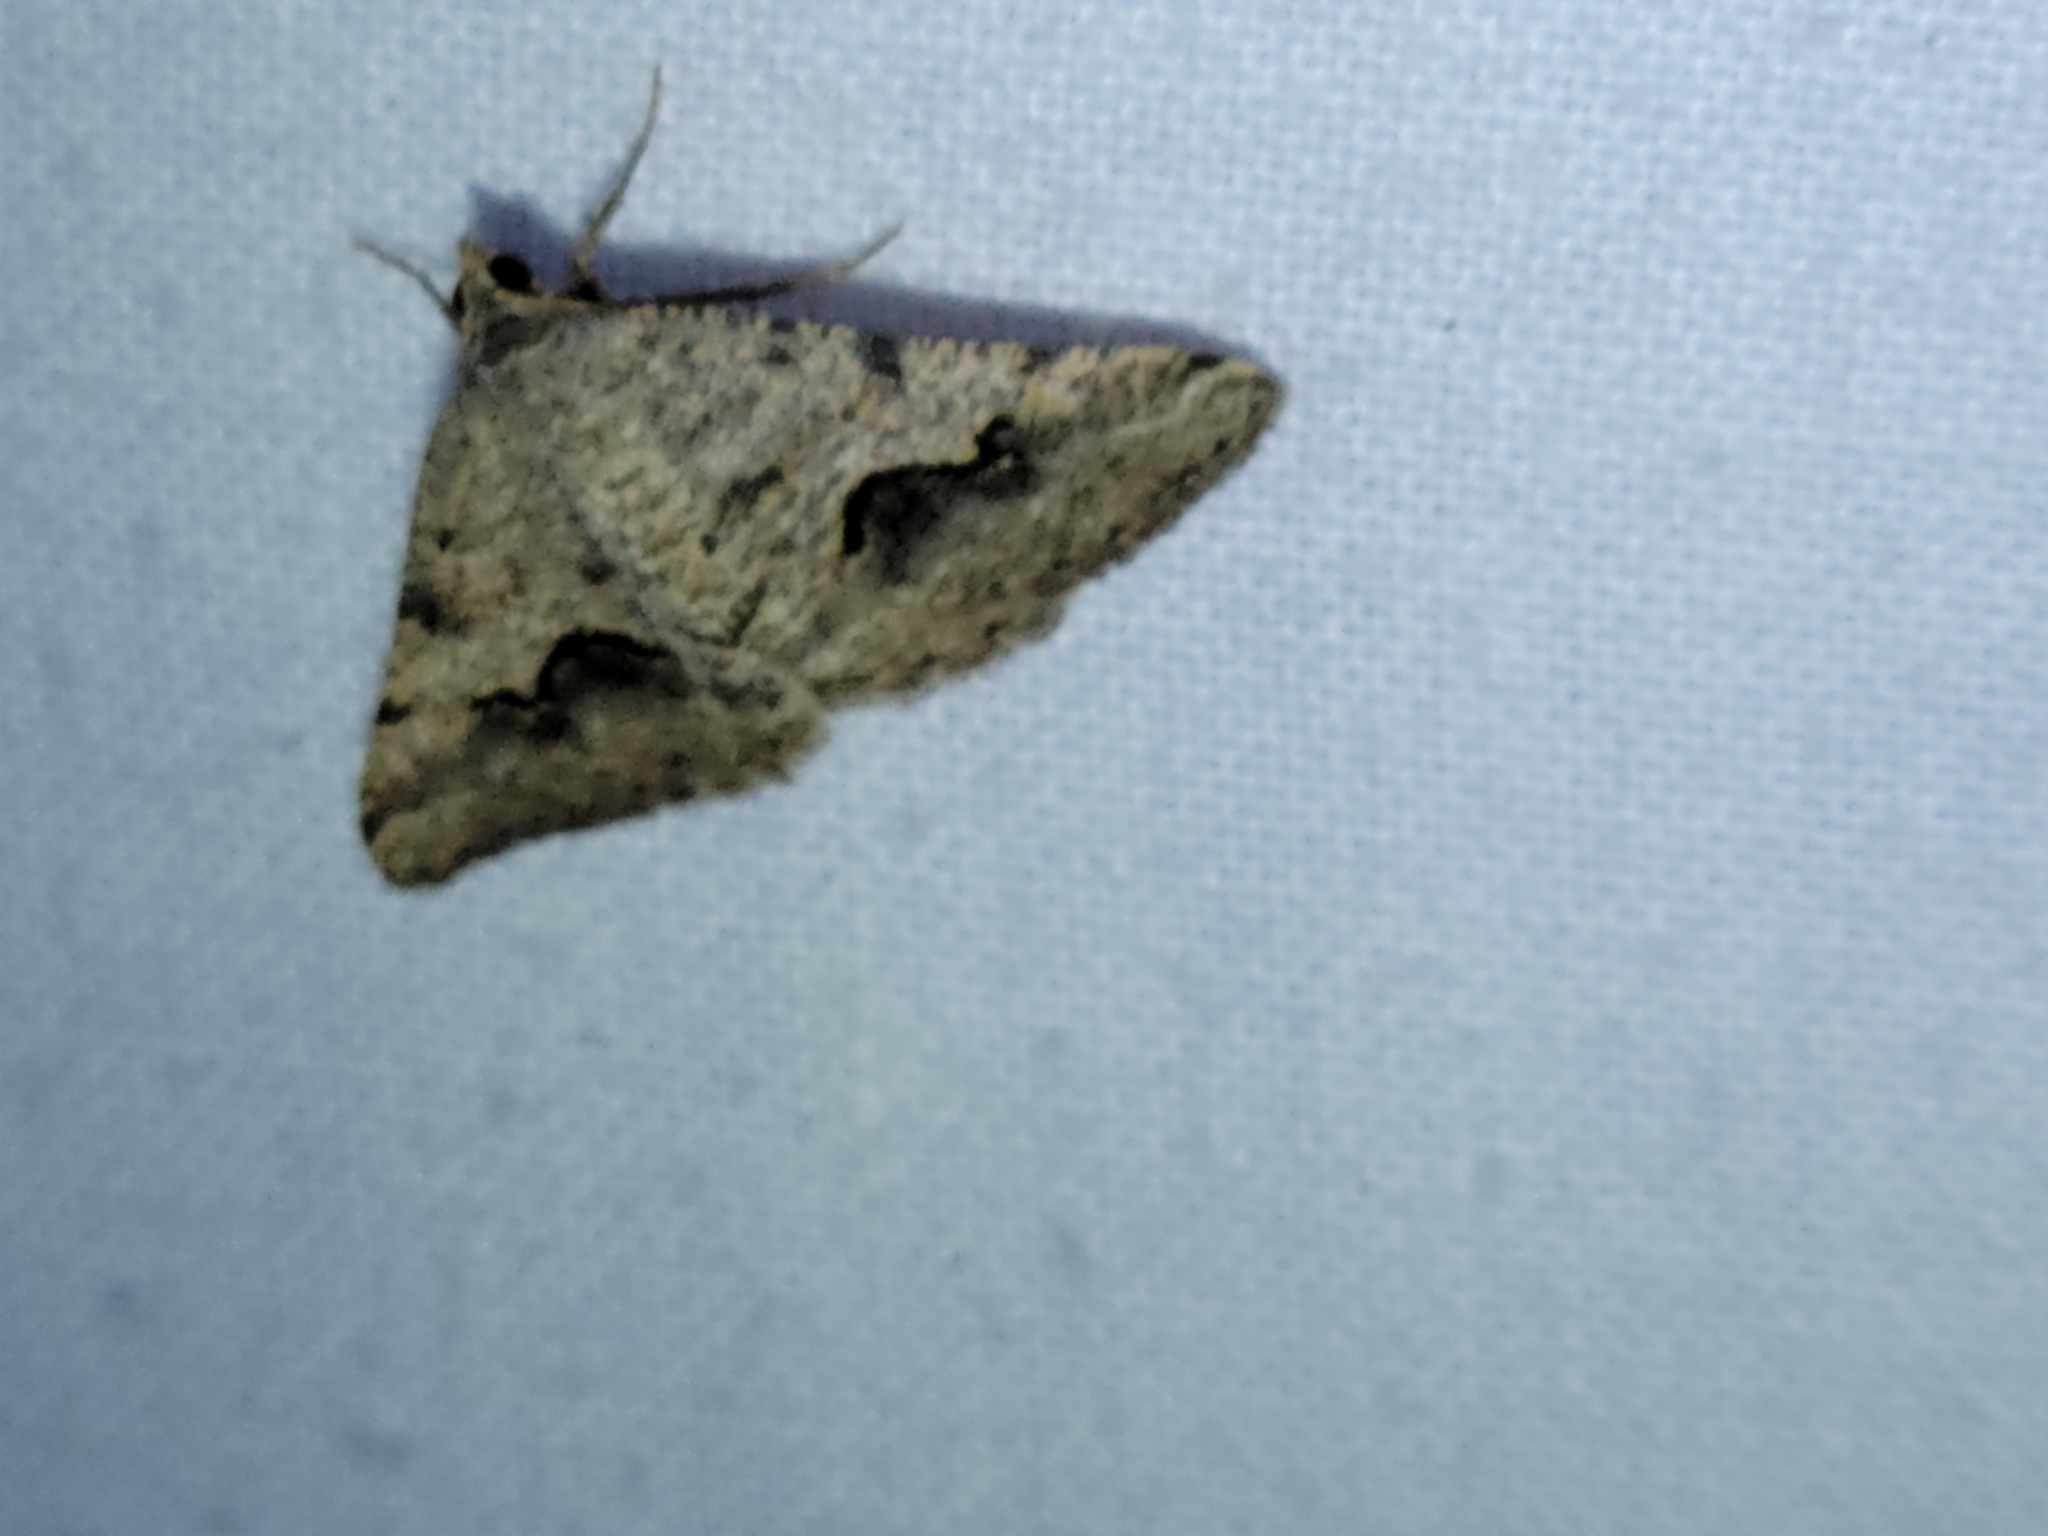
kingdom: Animalia
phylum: Arthropoda
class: Insecta
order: Lepidoptera
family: Geometridae
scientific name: Geometridae
